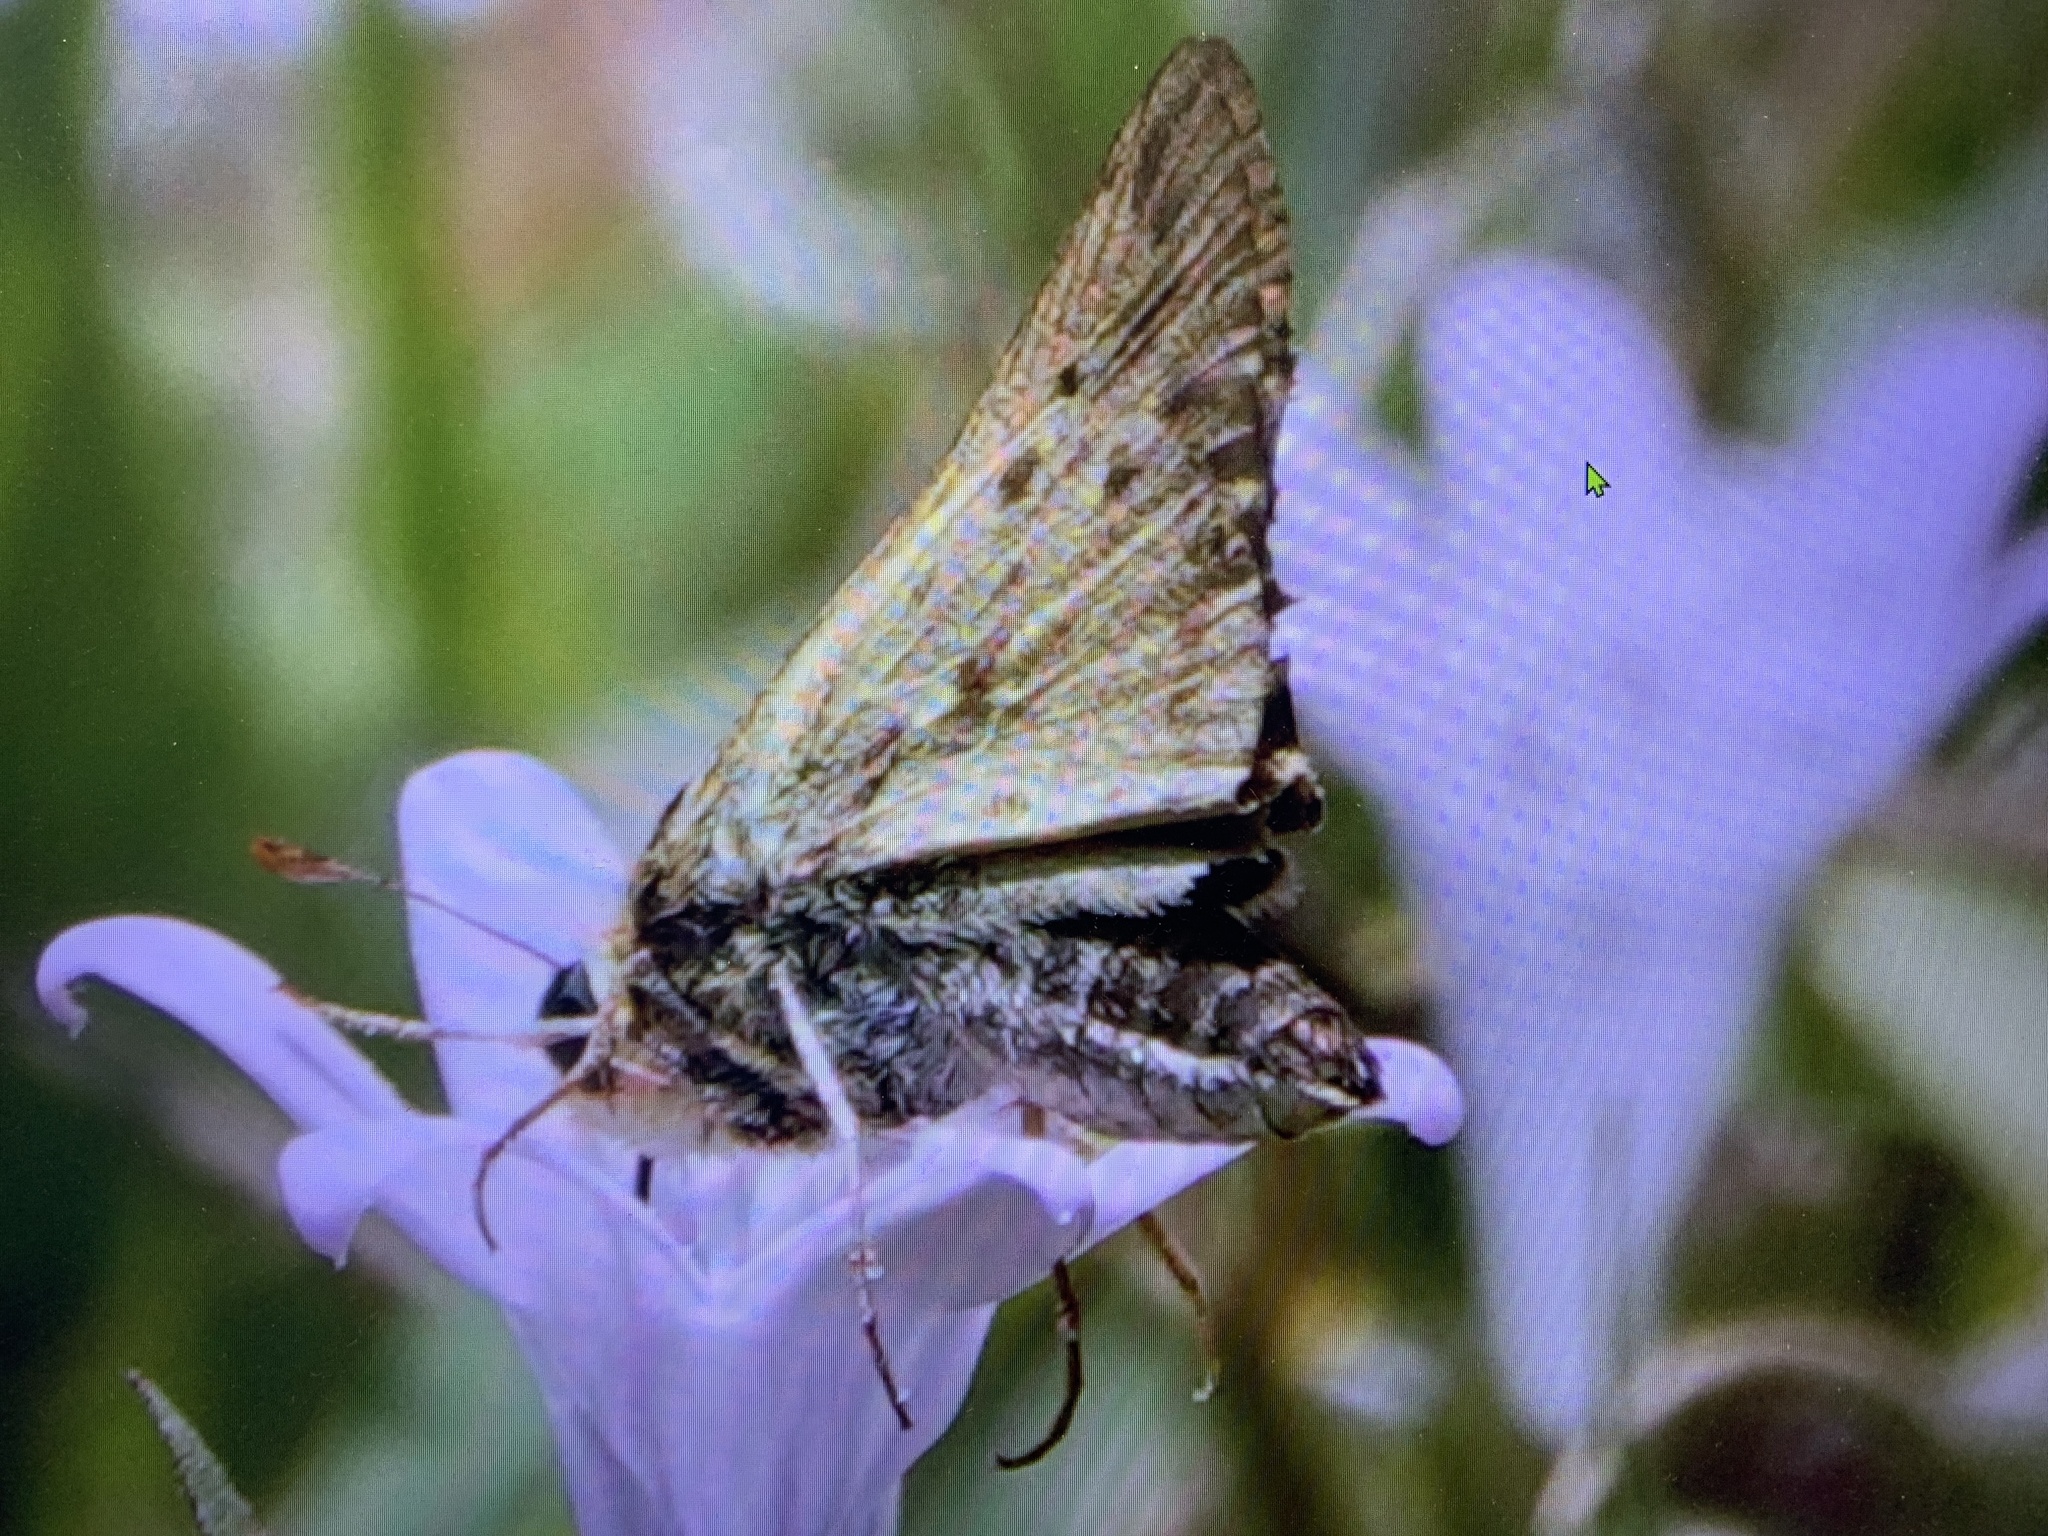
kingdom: Animalia
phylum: Arthropoda
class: Insecta
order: Lepidoptera
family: Hesperiidae
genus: Hylephila
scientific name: Hylephila phyleus
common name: Fiery skipper
